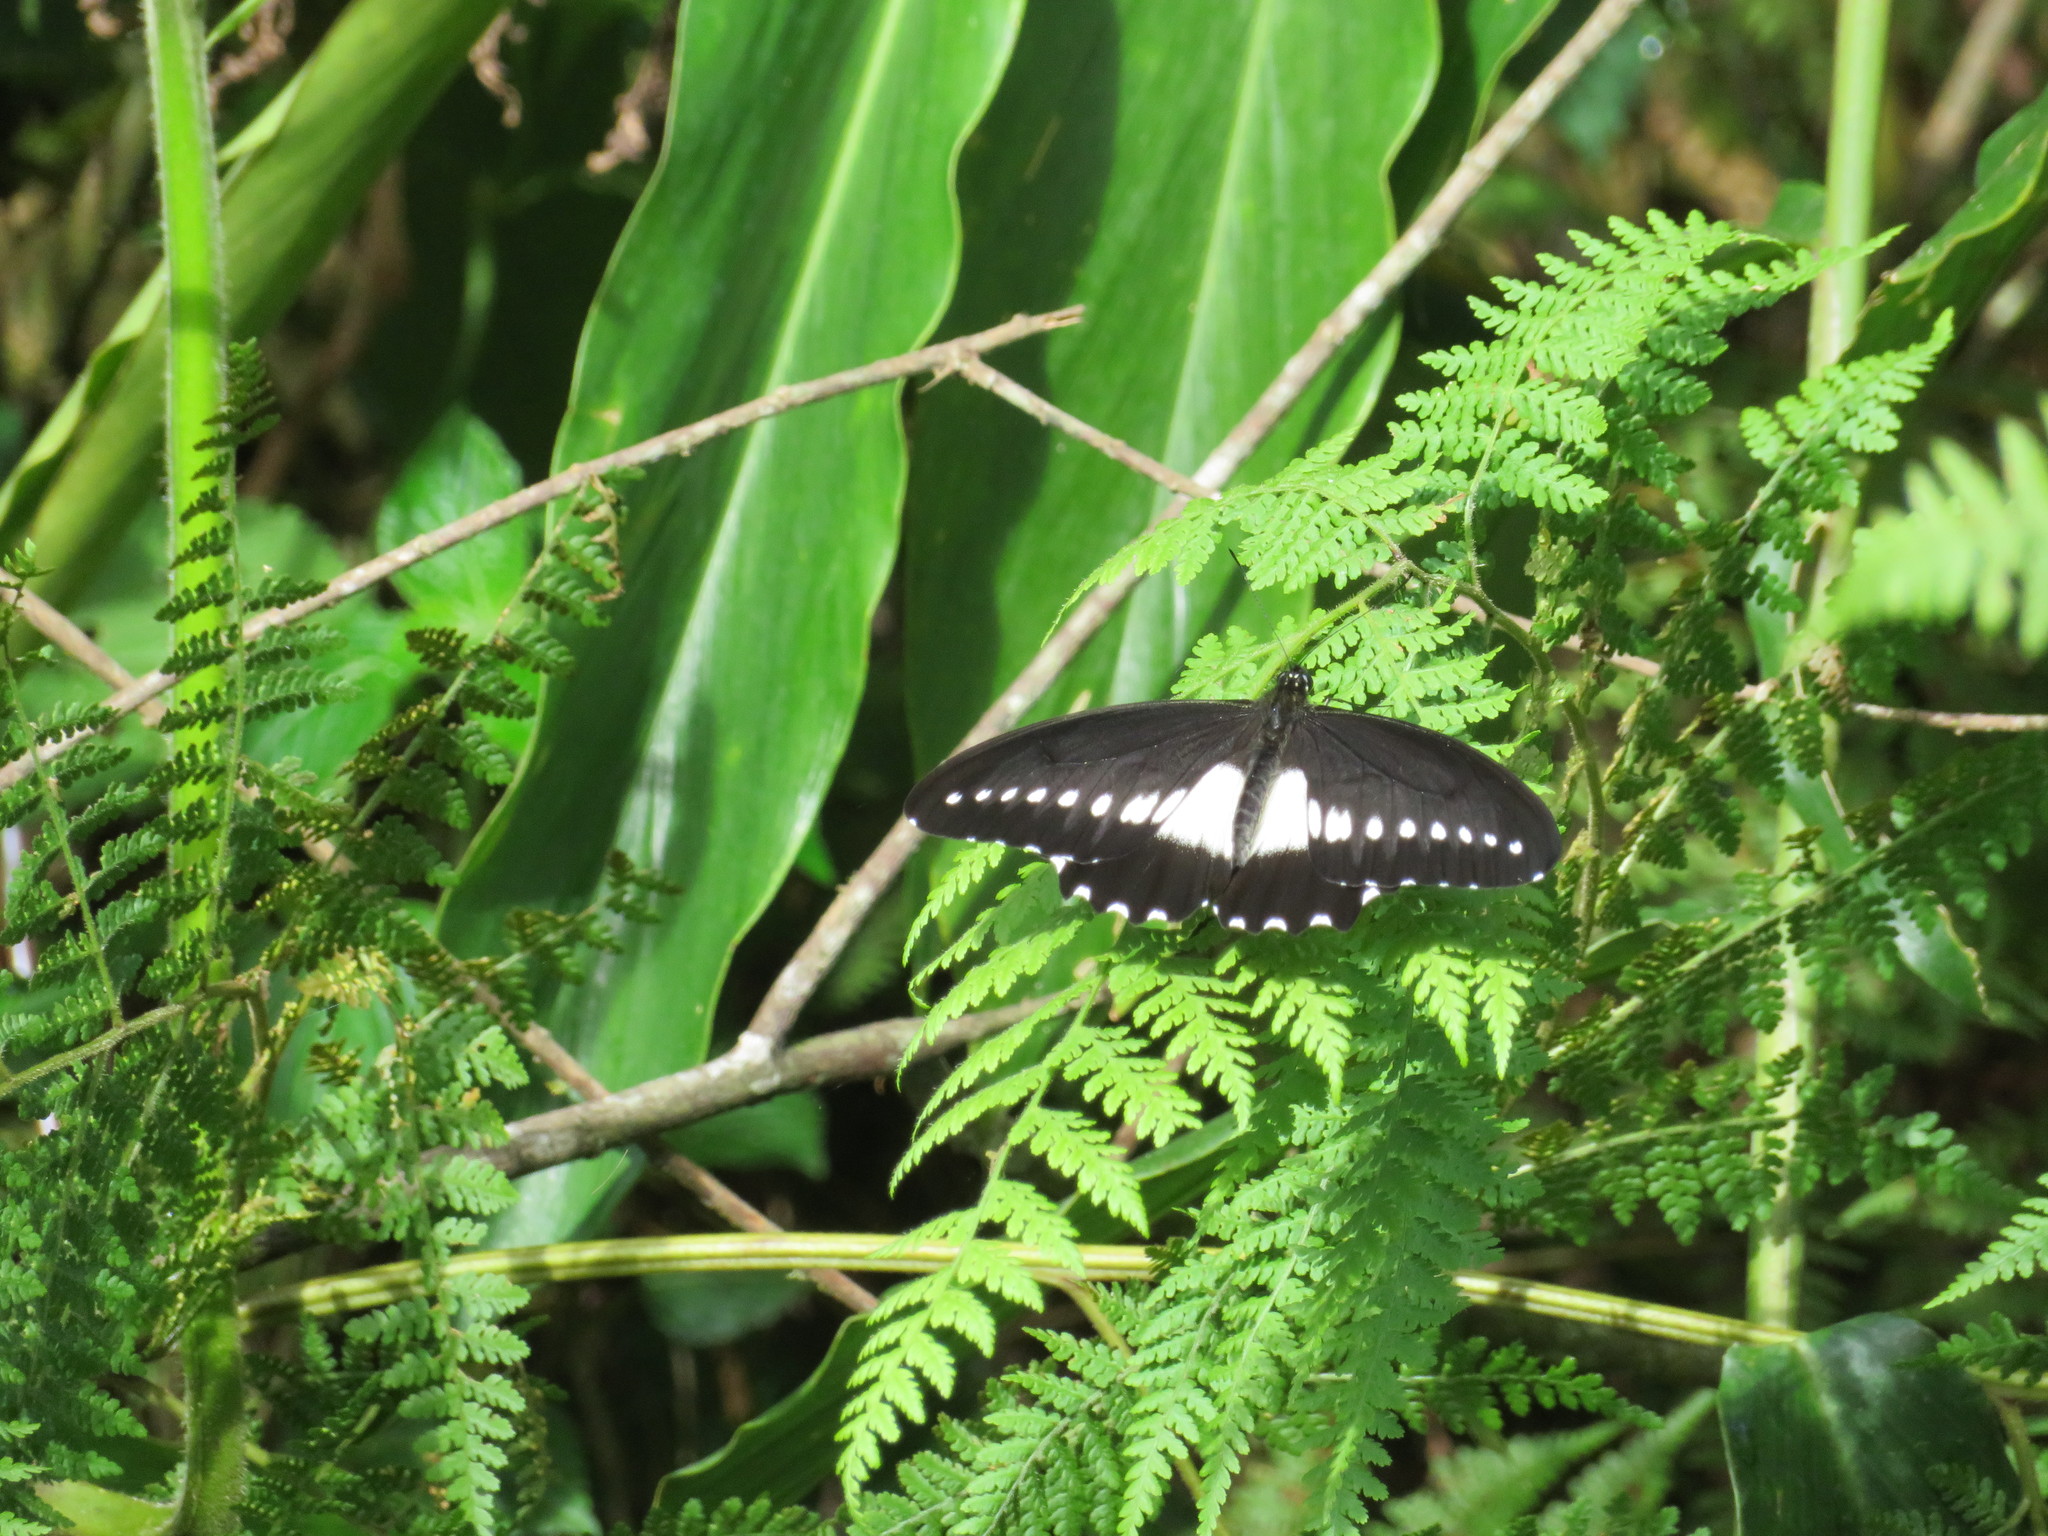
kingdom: Animalia
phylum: Arthropoda
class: Insecta
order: Lepidoptera
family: Papilionidae
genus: Papilio
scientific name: Papilio fuelleborni
